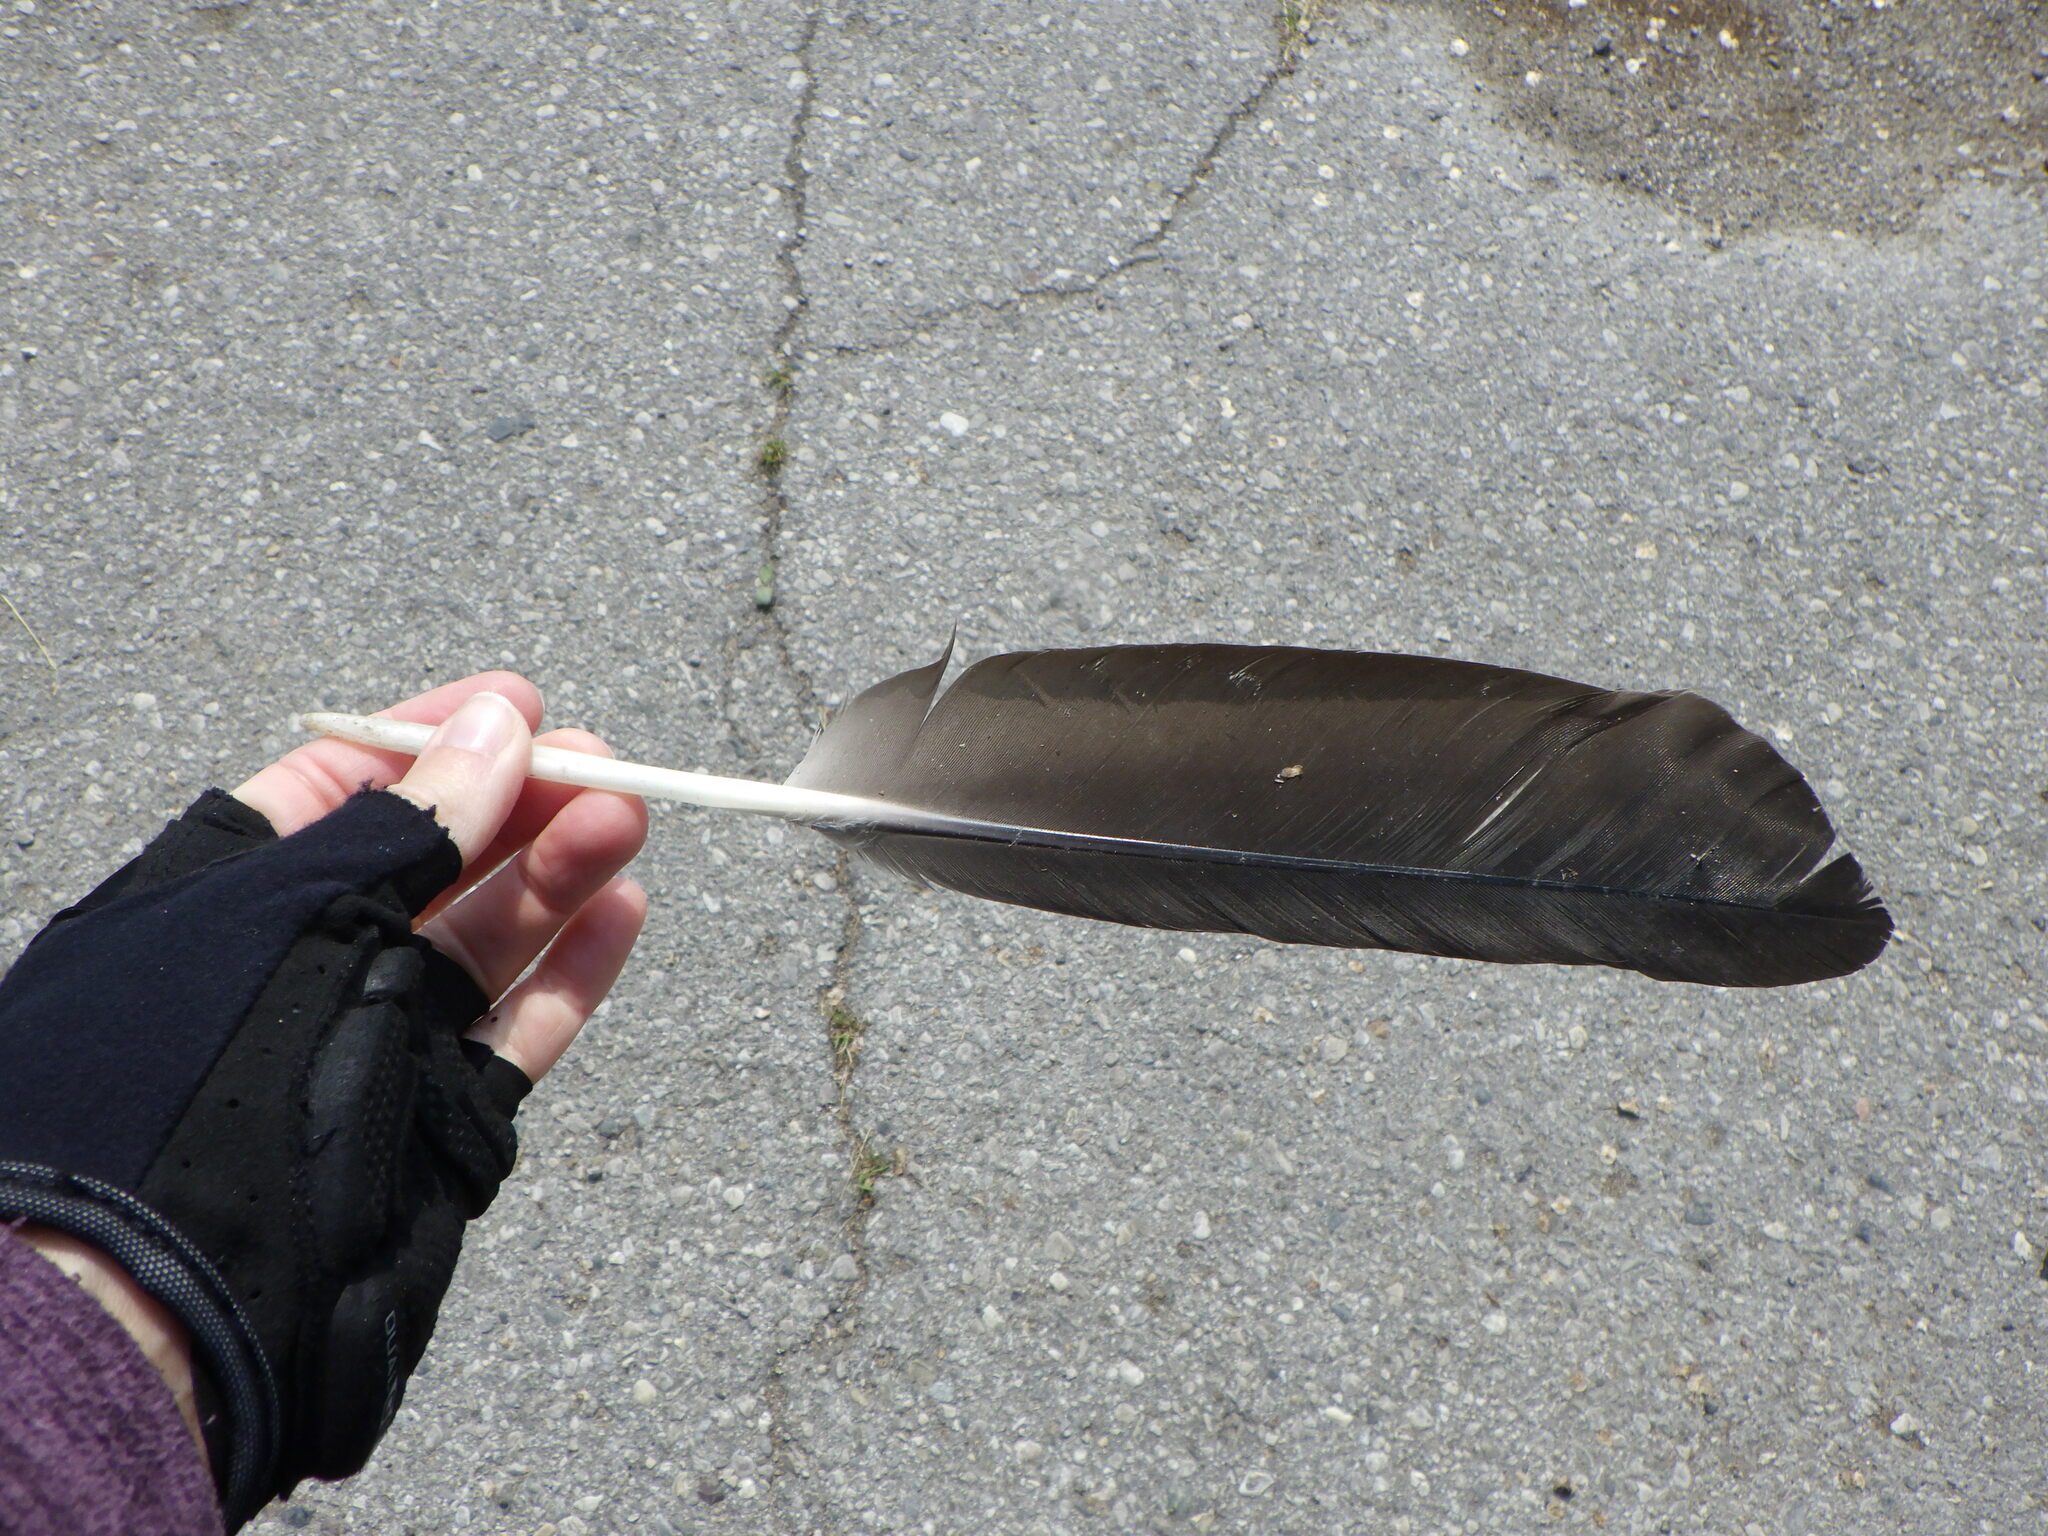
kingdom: Animalia
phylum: Chordata
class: Aves
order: Anseriformes
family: Anatidae
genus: Branta
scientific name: Branta canadensis
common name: Canada goose
